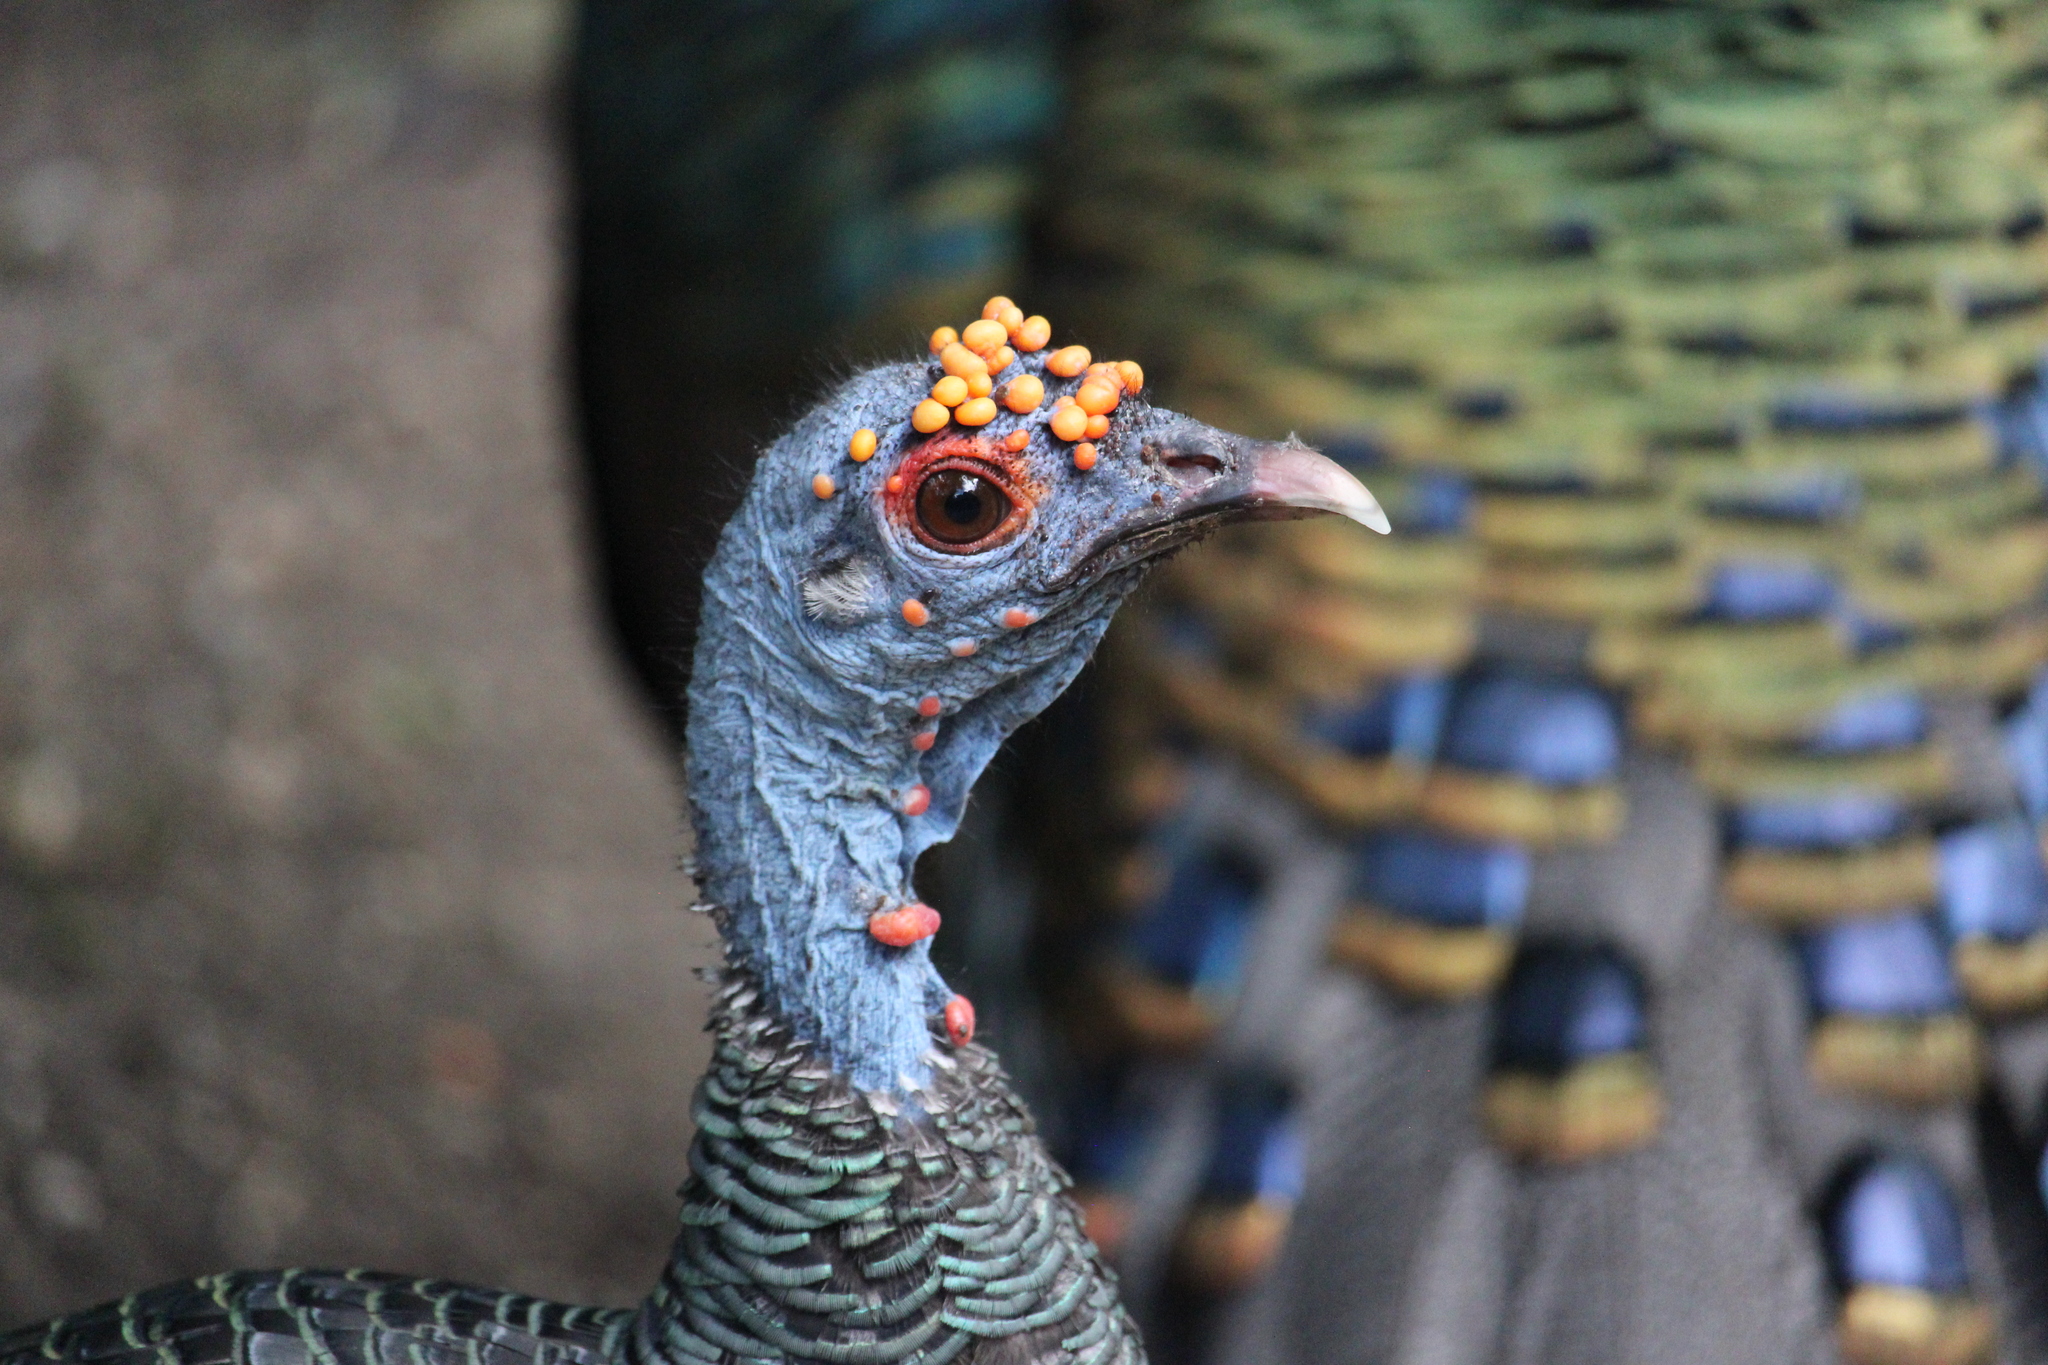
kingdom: Animalia
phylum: Chordata
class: Aves
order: Galliformes
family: Phasianidae
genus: Meleagris
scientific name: Meleagris ocellata
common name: Ocellated turkey
